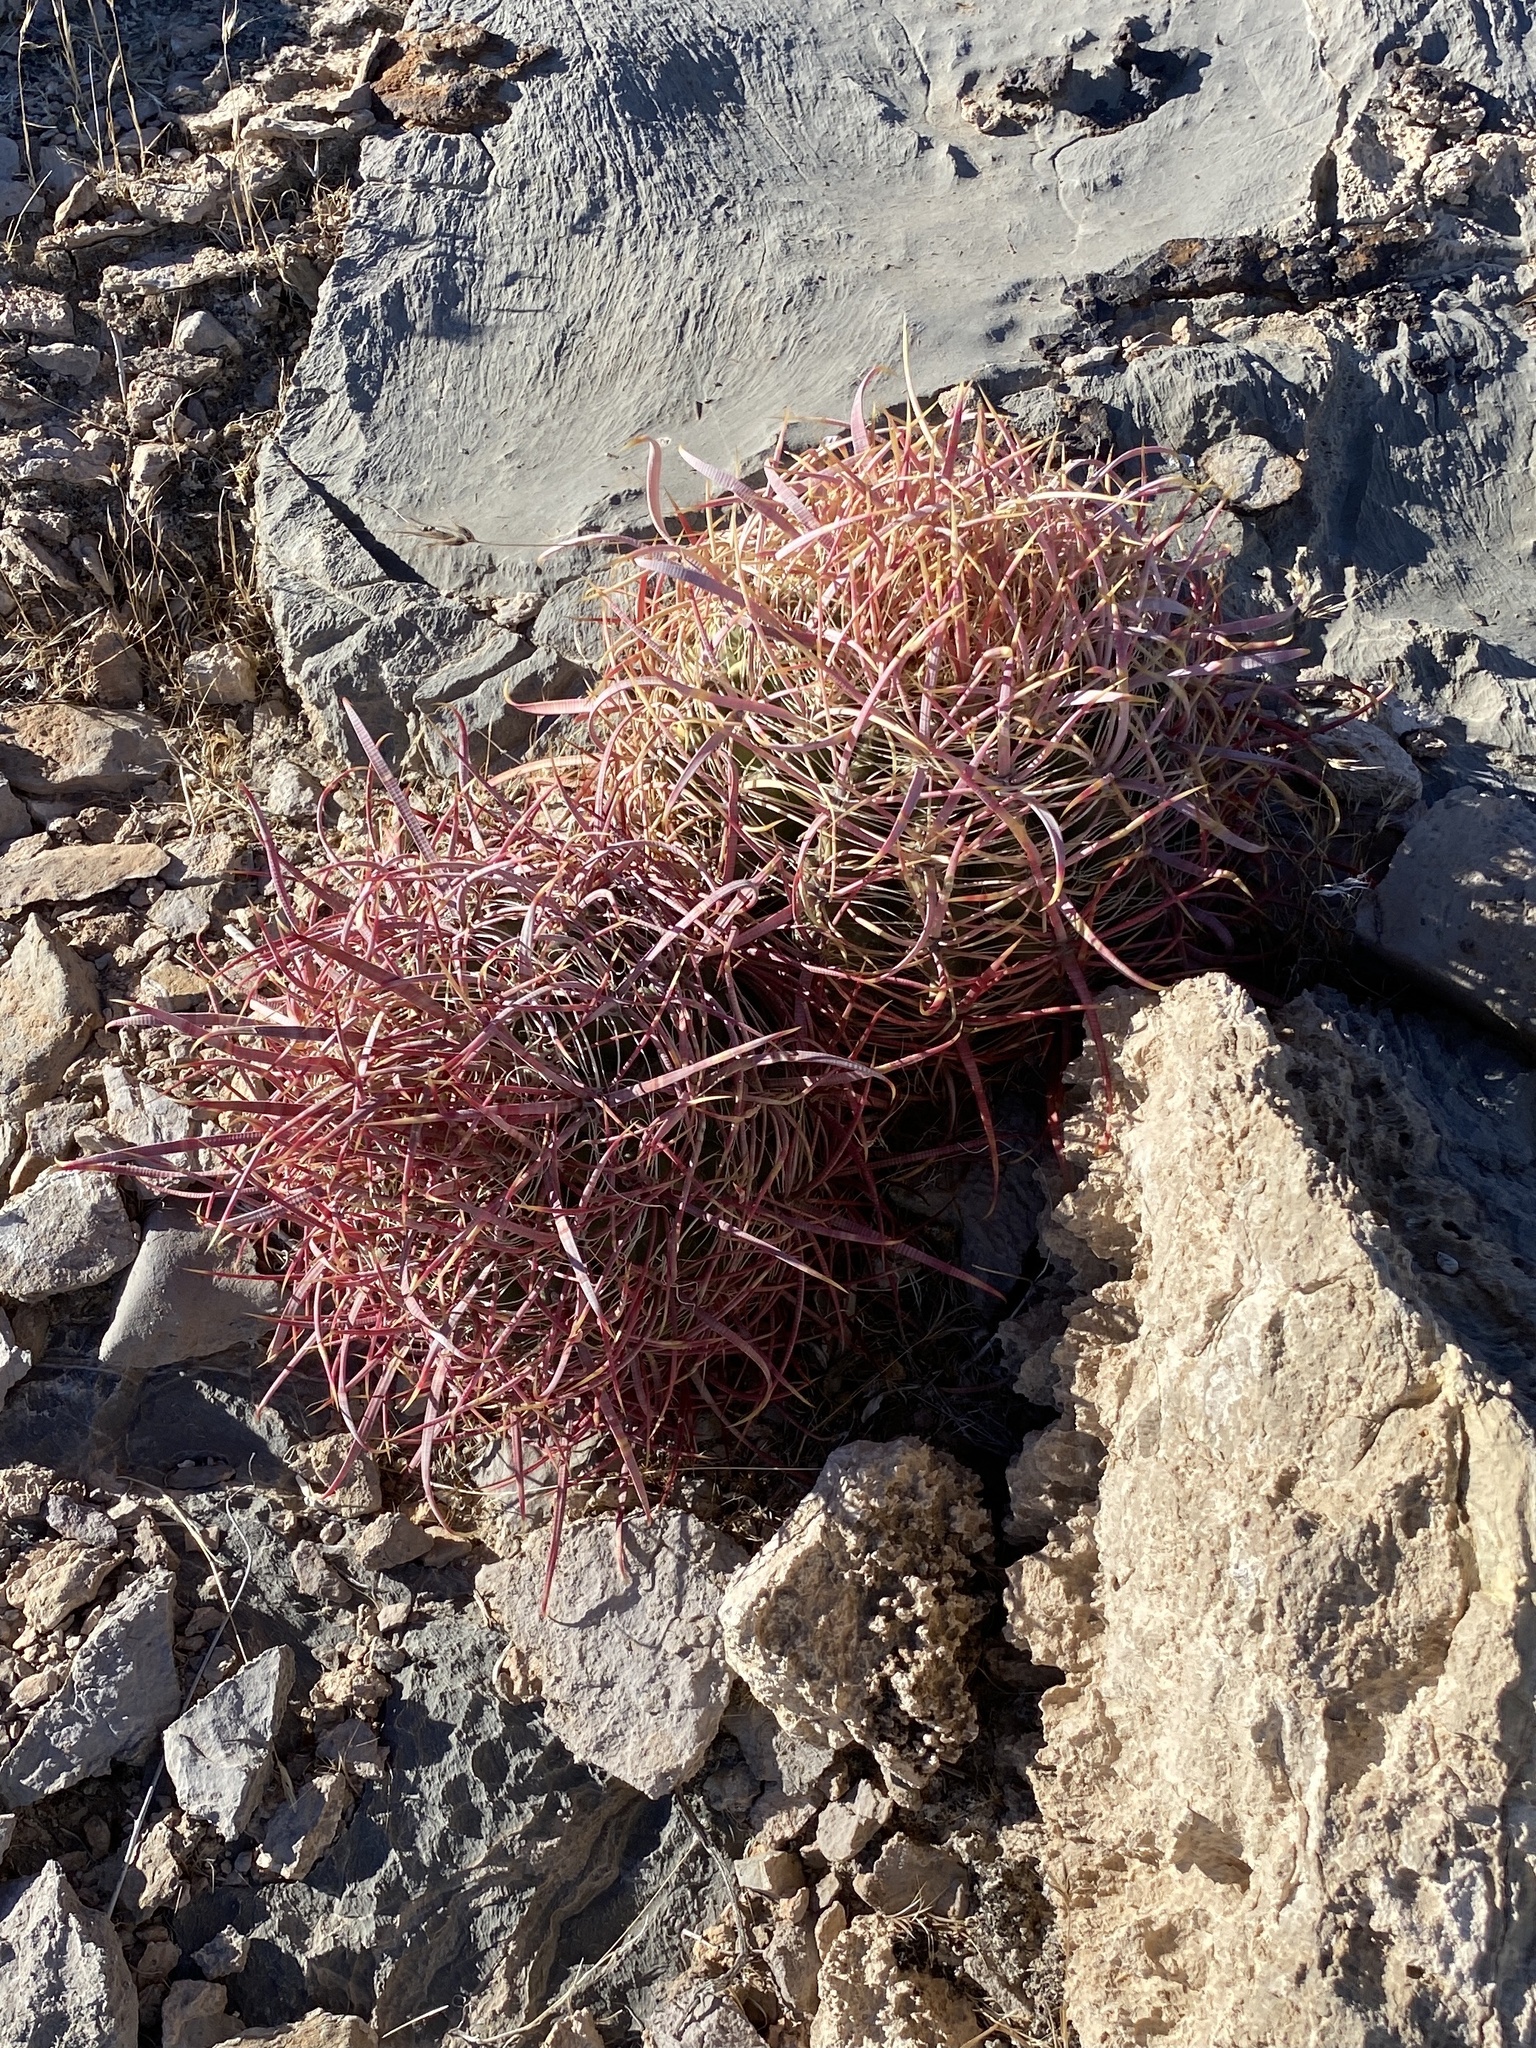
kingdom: Plantae
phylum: Tracheophyta
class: Magnoliopsida
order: Caryophyllales
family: Cactaceae
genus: Ferocactus
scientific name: Ferocactus cylindraceus
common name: California barrel cactus
